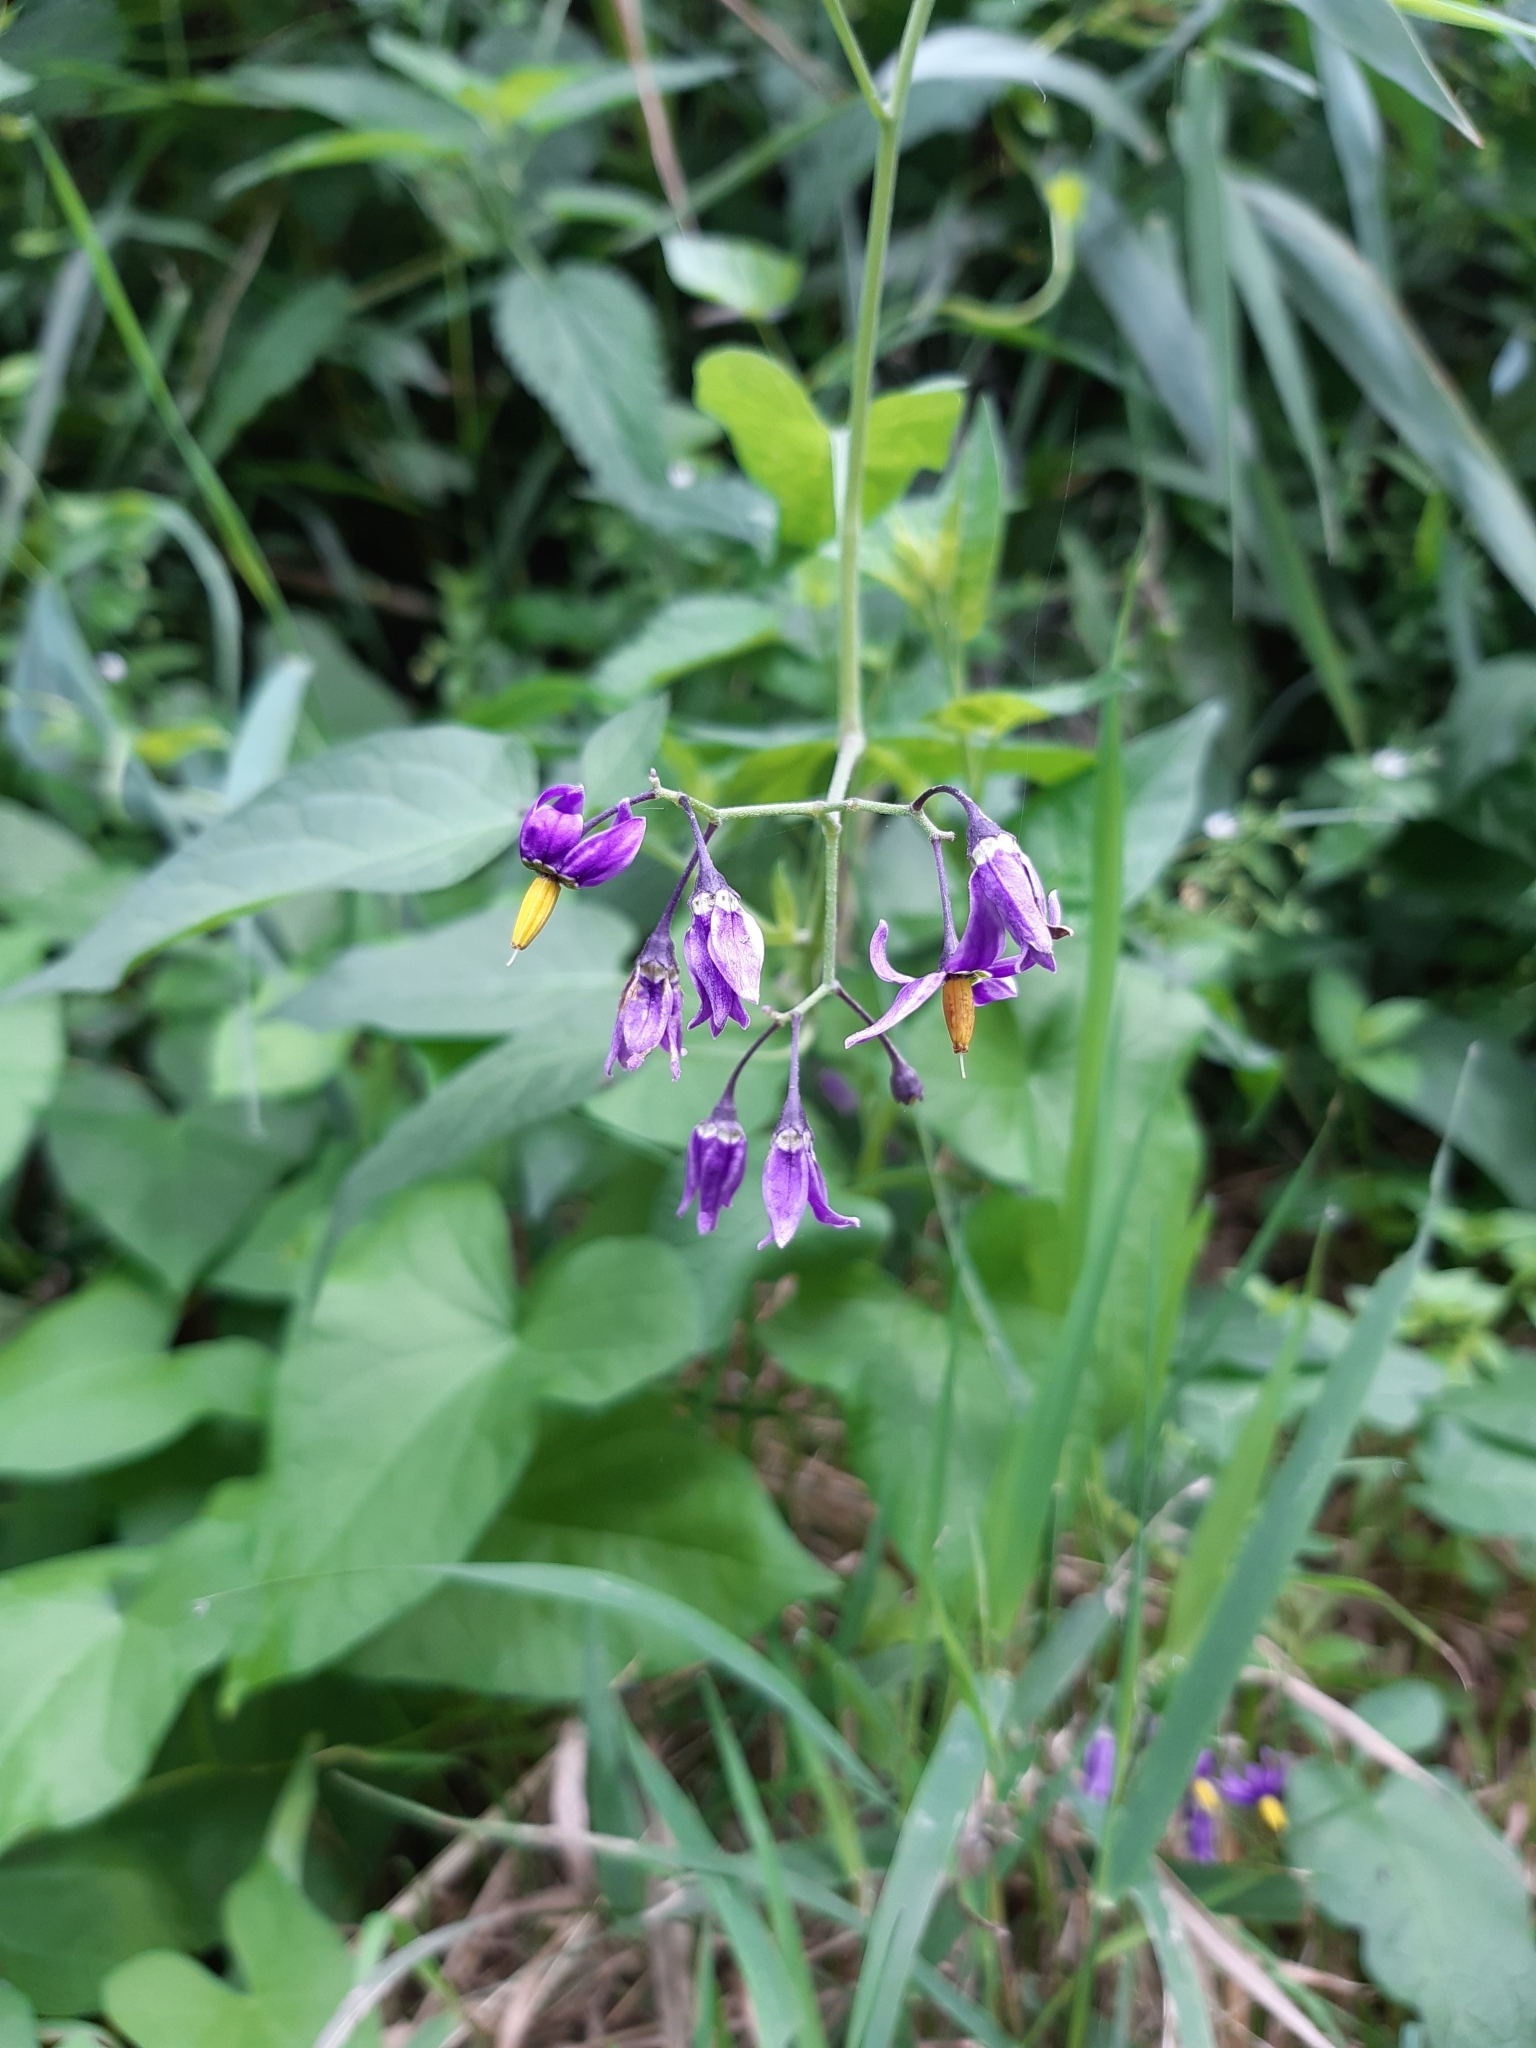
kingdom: Plantae
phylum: Tracheophyta
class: Magnoliopsida
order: Solanales
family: Solanaceae
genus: Solanum
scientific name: Solanum dulcamara
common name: Climbing nightshade
